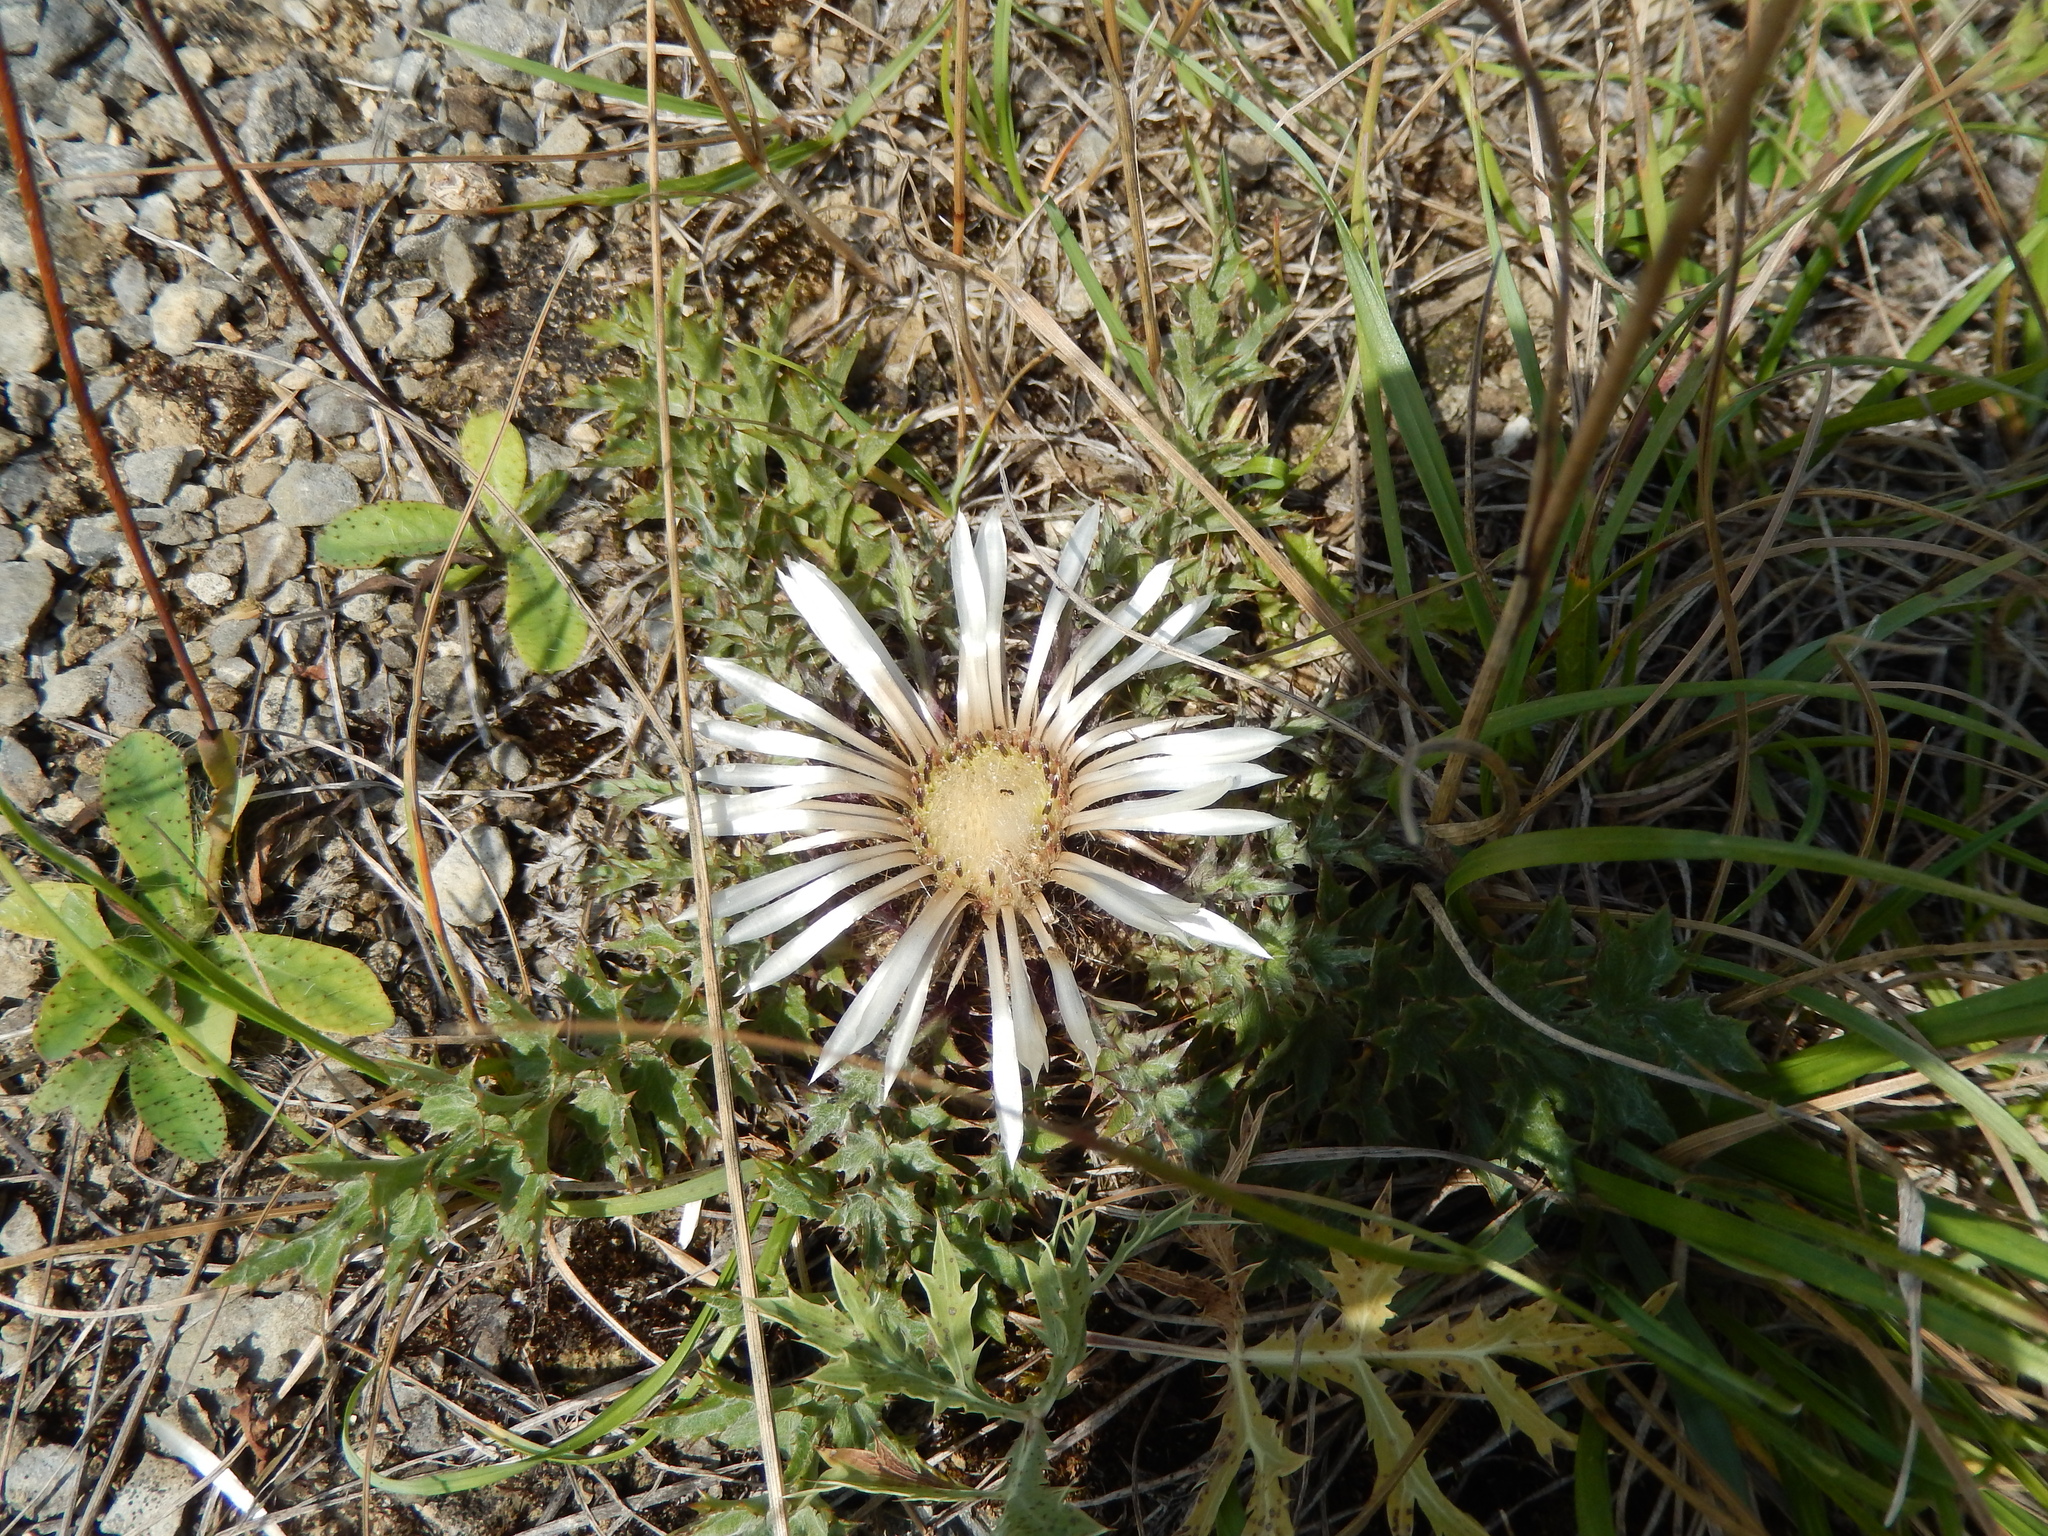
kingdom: Plantae
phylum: Tracheophyta
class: Magnoliopsida
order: Asterales
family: Asteraceae
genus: Carlina
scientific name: Carlina acaulis
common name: Stemless carline thistle
